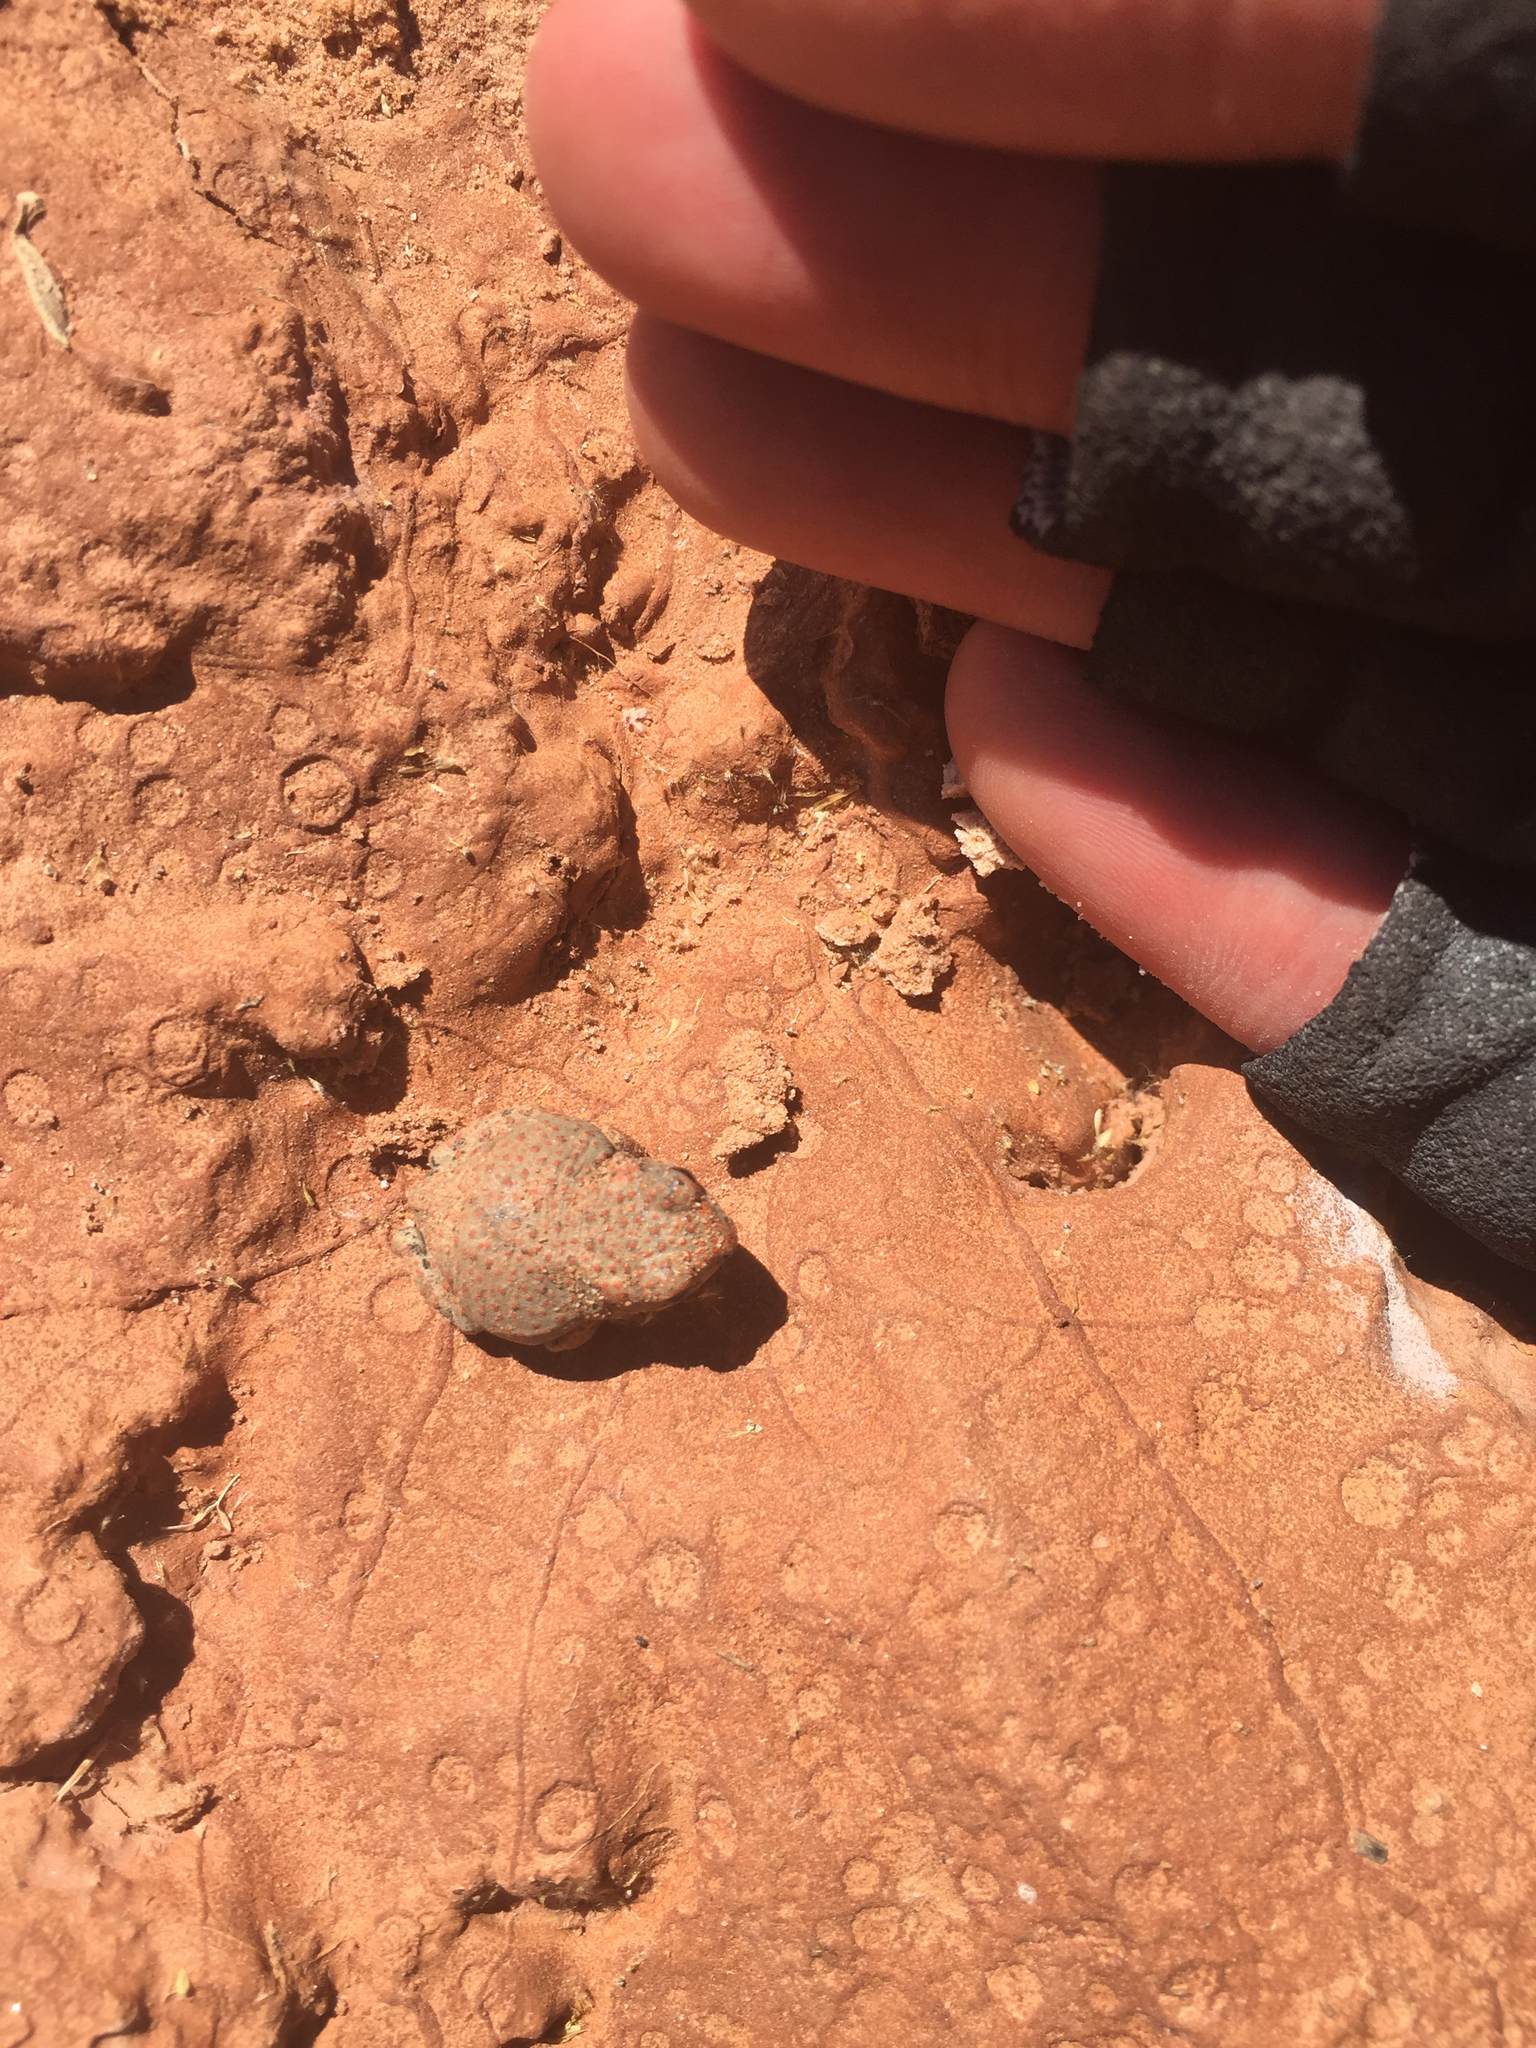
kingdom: Animalia
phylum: Chordata
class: Amphibia
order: Anura
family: Bufonidae
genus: Anaxyrus
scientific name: Anaxyrus punctatus
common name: Red-spotted toad
